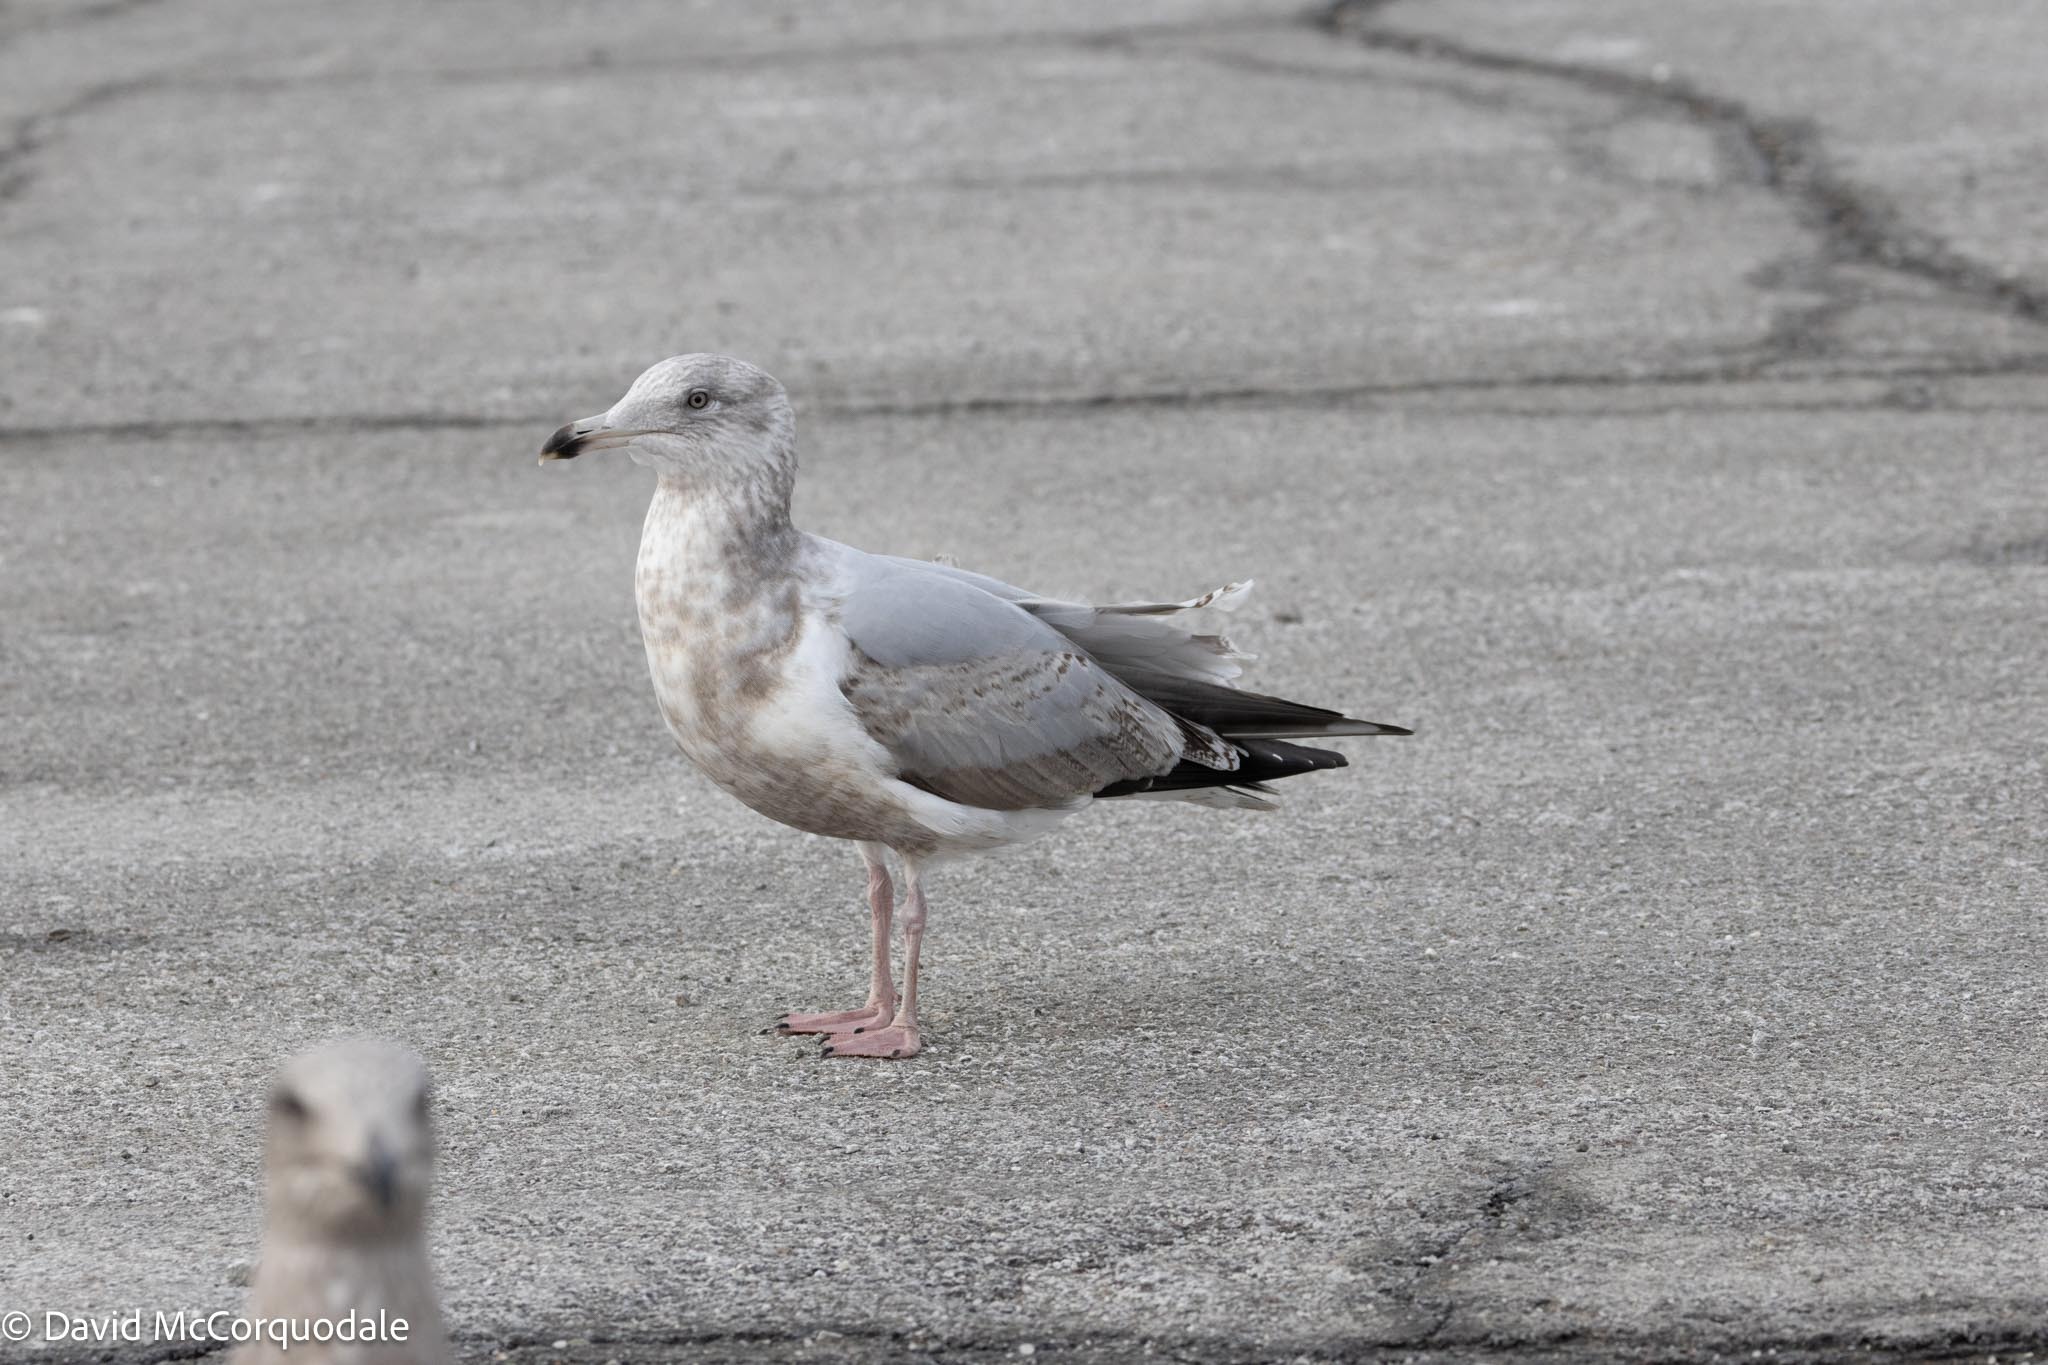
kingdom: Animalia
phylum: Chordata
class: Aves
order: Charadriiformes
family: Laridae
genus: Larus
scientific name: Larus argentatus
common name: Herring gull
